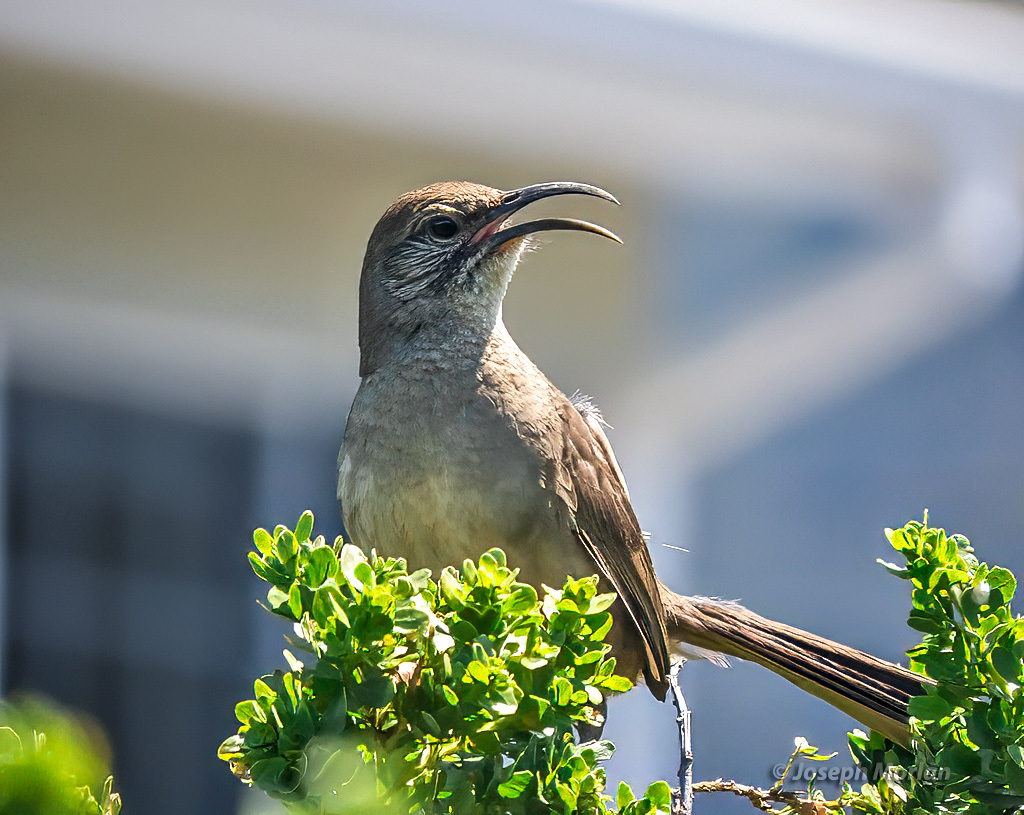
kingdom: Animalia
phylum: Chordata
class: Aves
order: Passeriformes
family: Mimidae
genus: Toxostoma
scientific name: Toxostoma redivivum
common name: California thrasher
